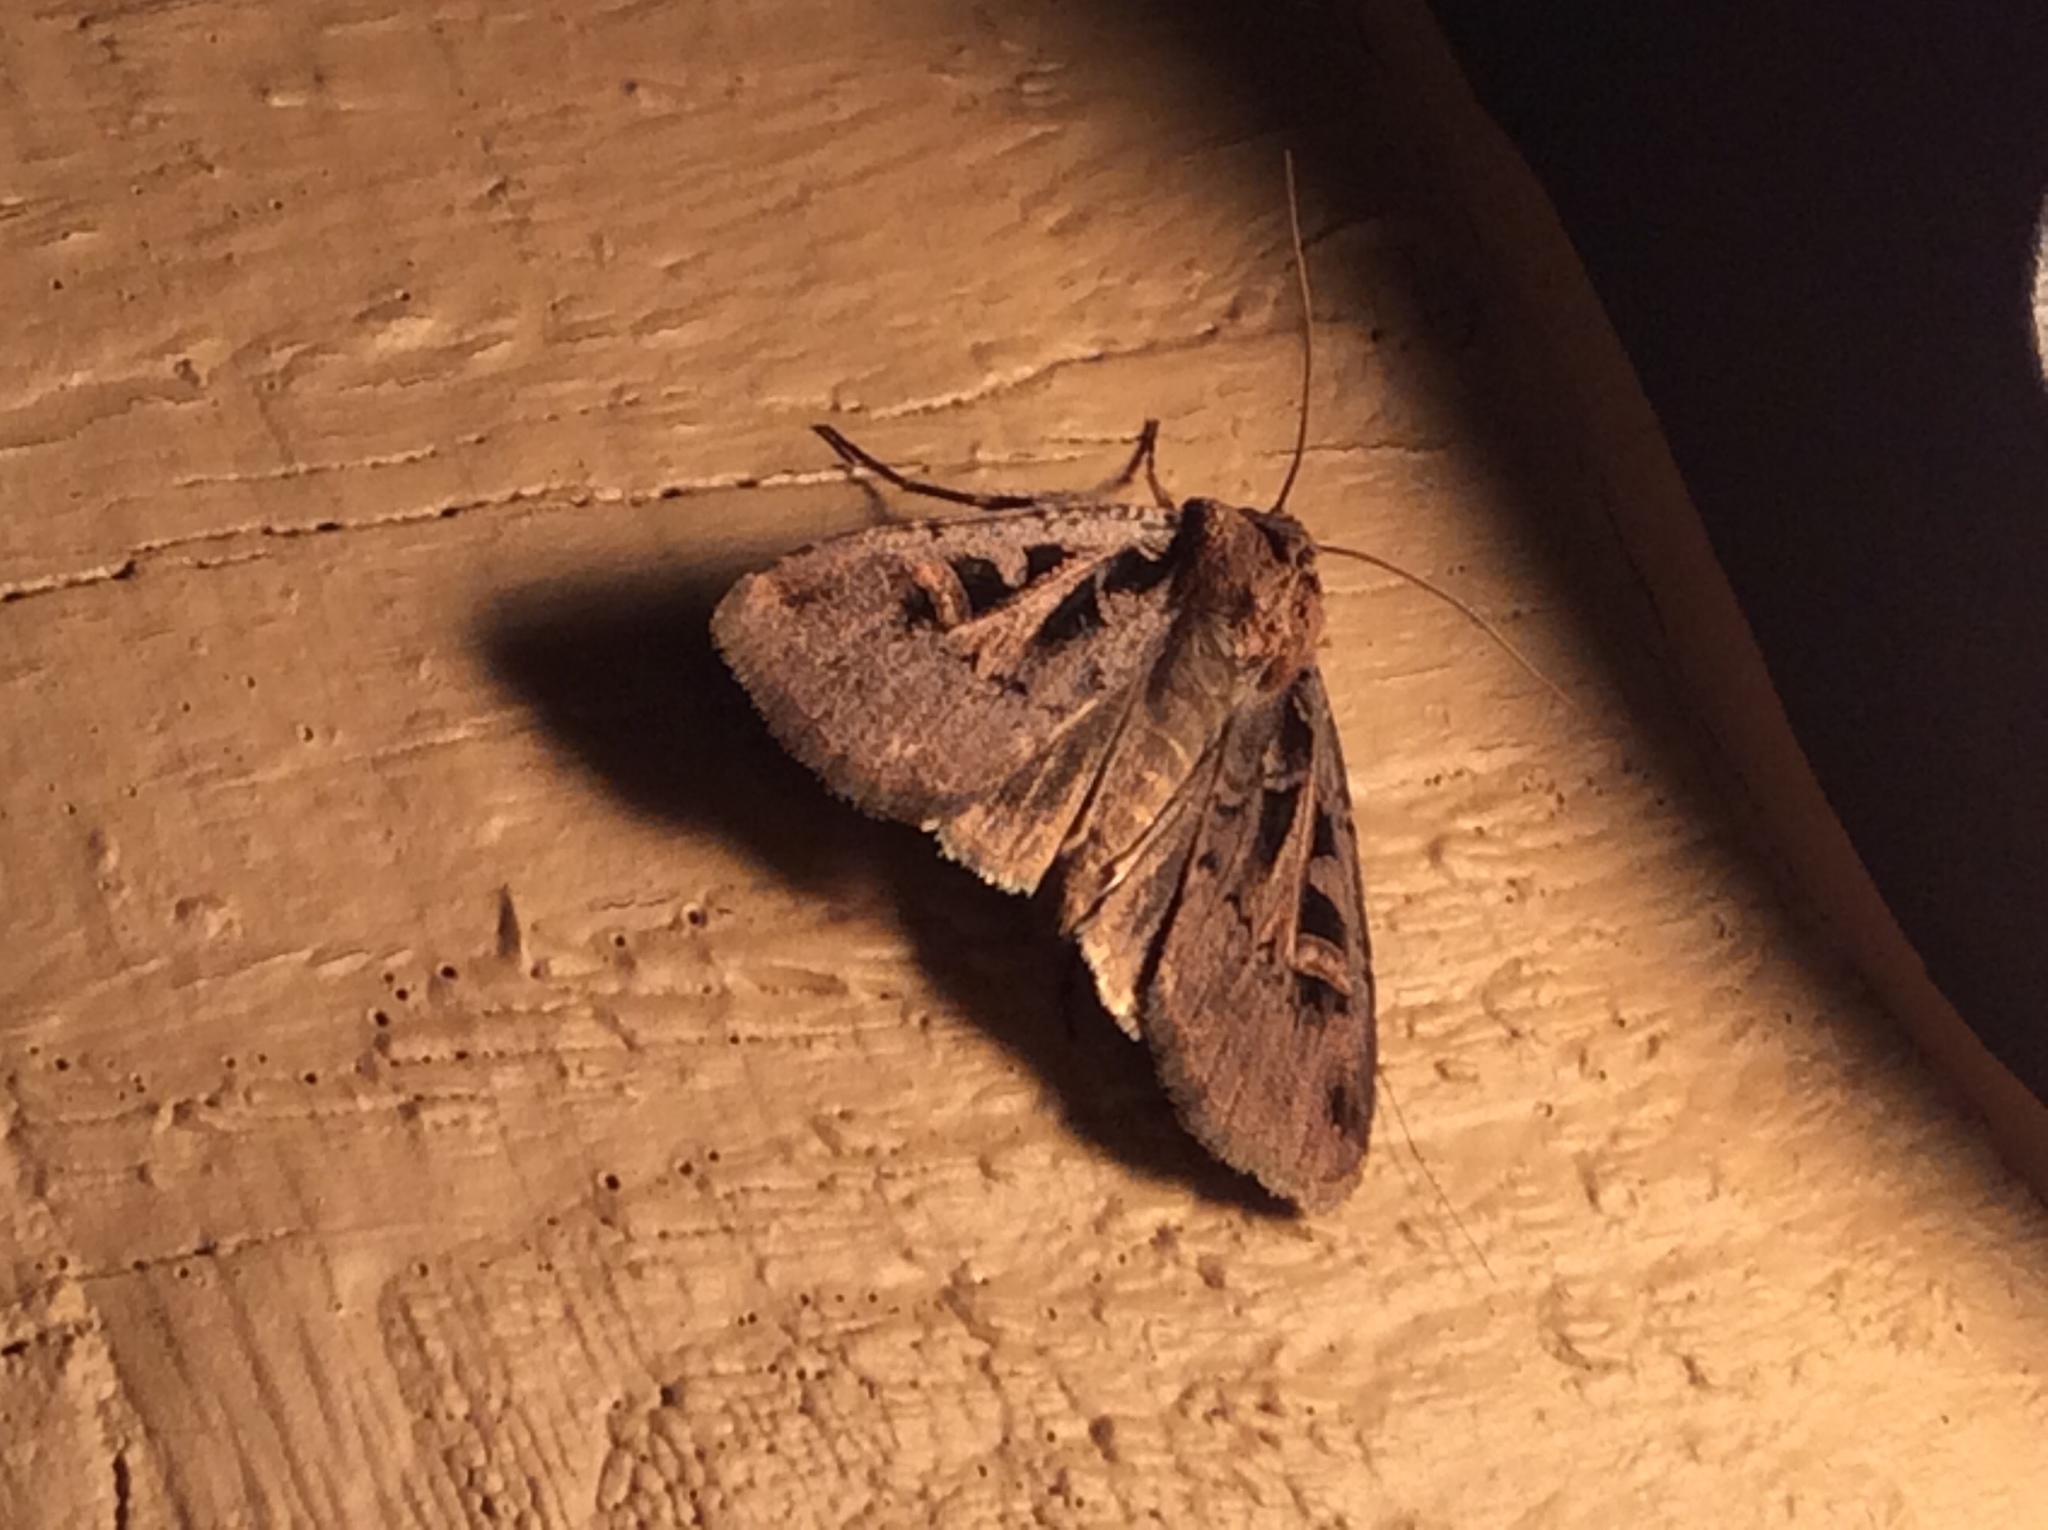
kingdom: Animalia
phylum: Arthropoda
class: Insecta
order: Lepidoptera
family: Noctuidae
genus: Feltia
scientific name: Feltia herilis
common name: Master's dart
